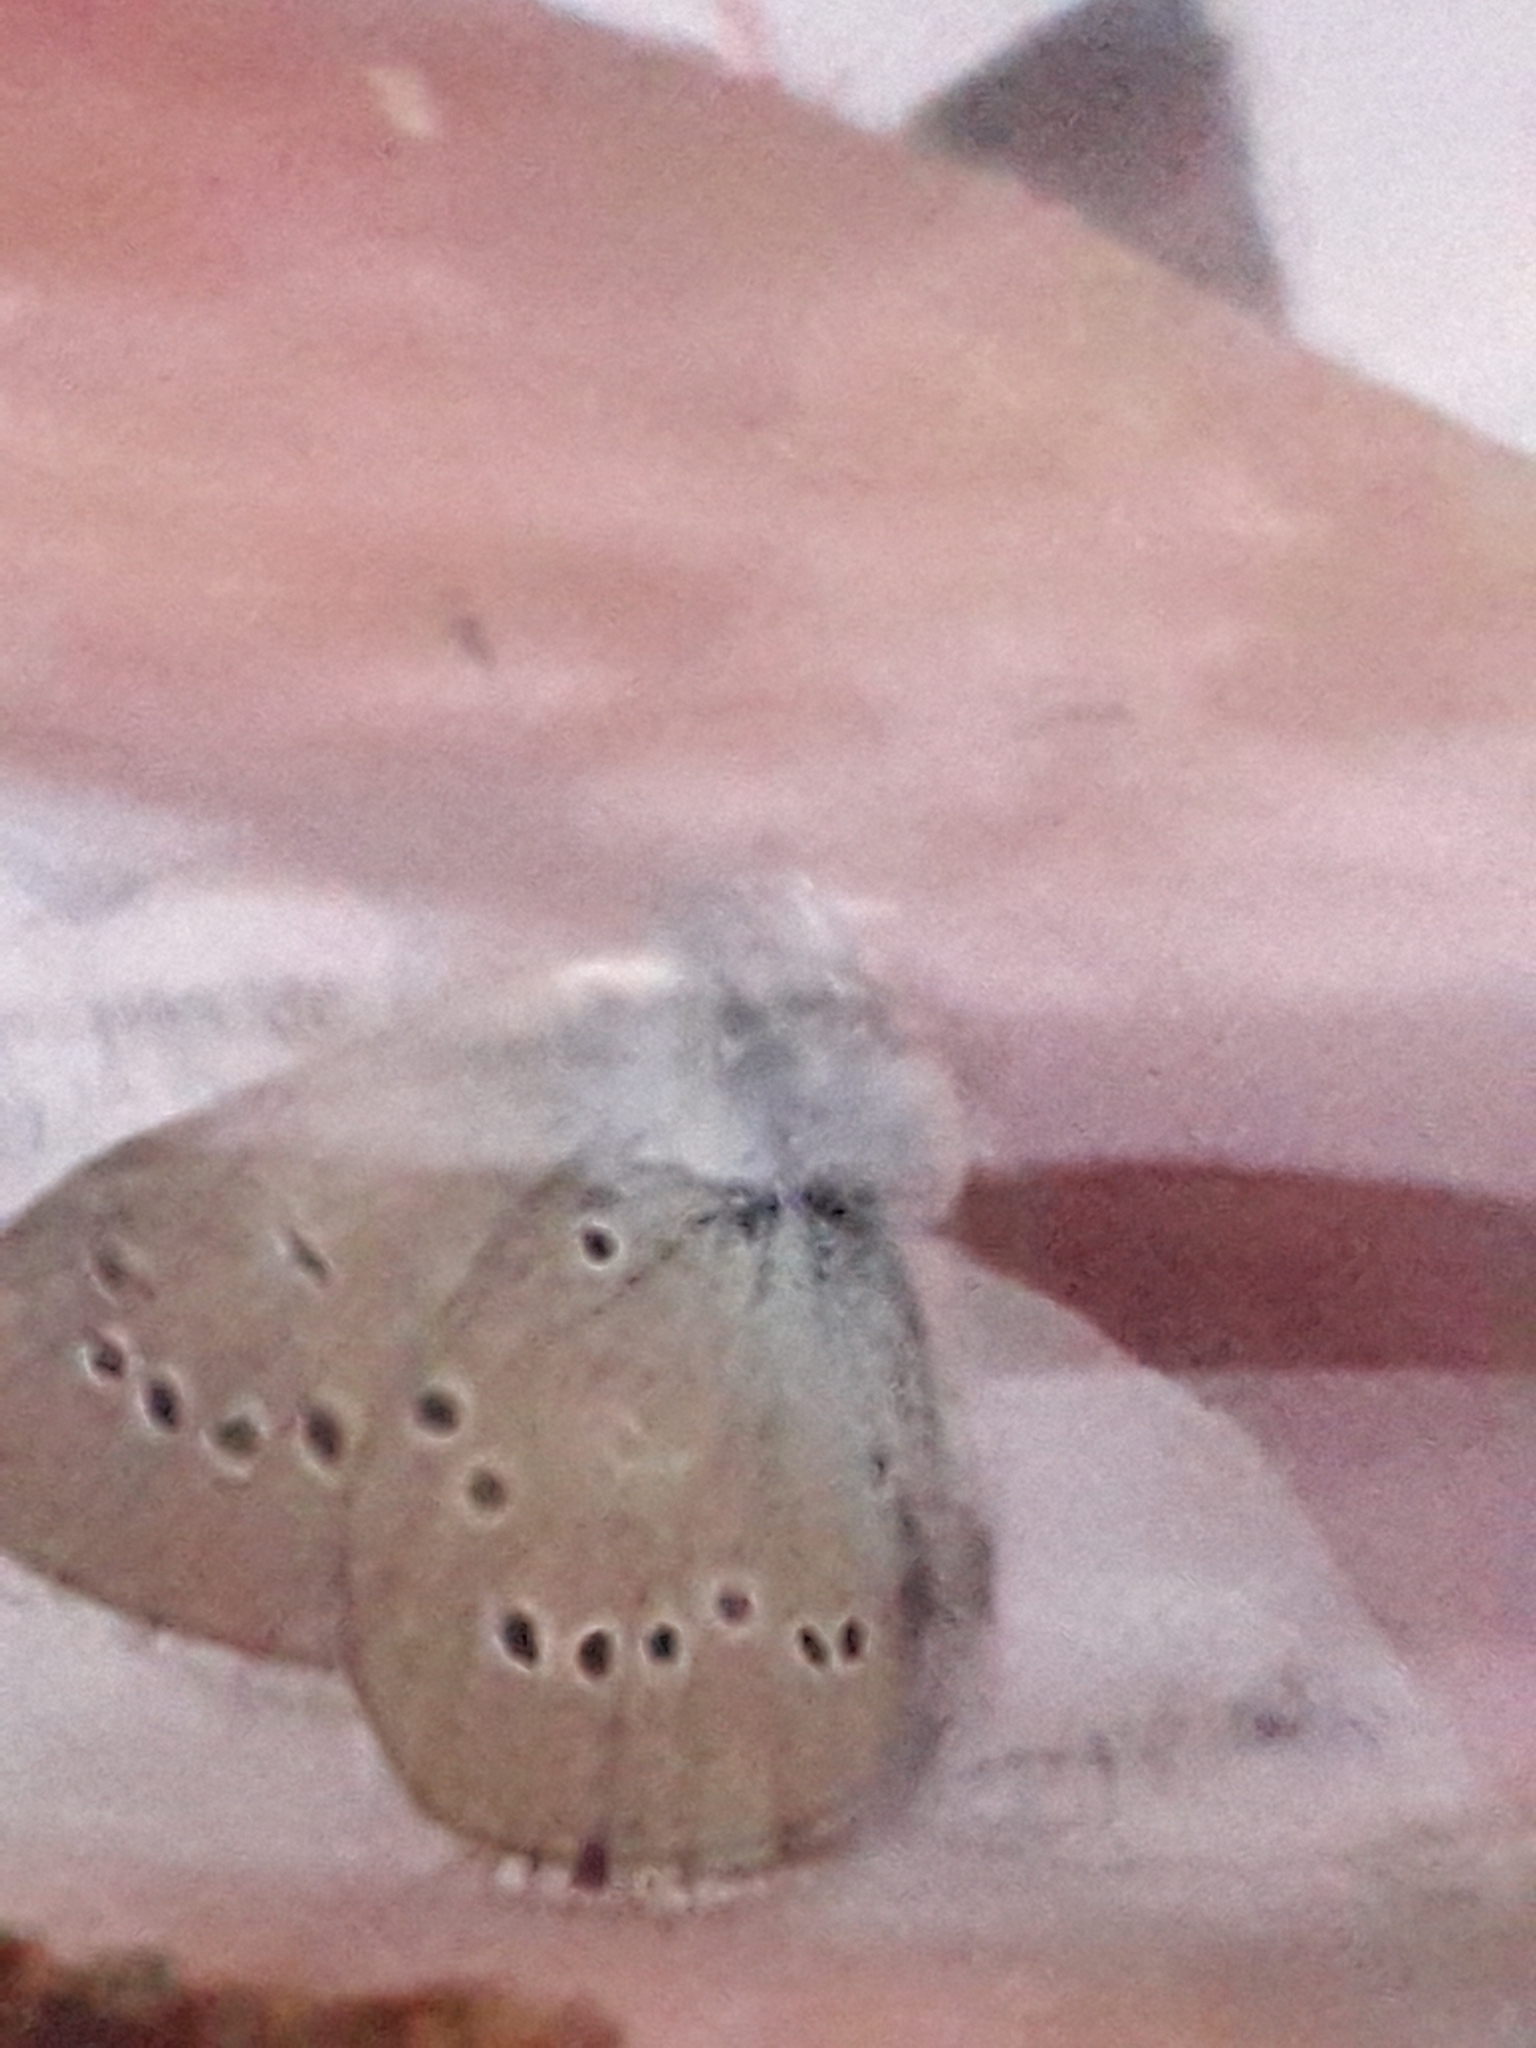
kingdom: Animalia
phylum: Arthropoda
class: Insecta
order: Lepidoptera
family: Lycaenidae
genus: Cyaniris
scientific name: Cyaniris semiargus
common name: Mazarine blue
